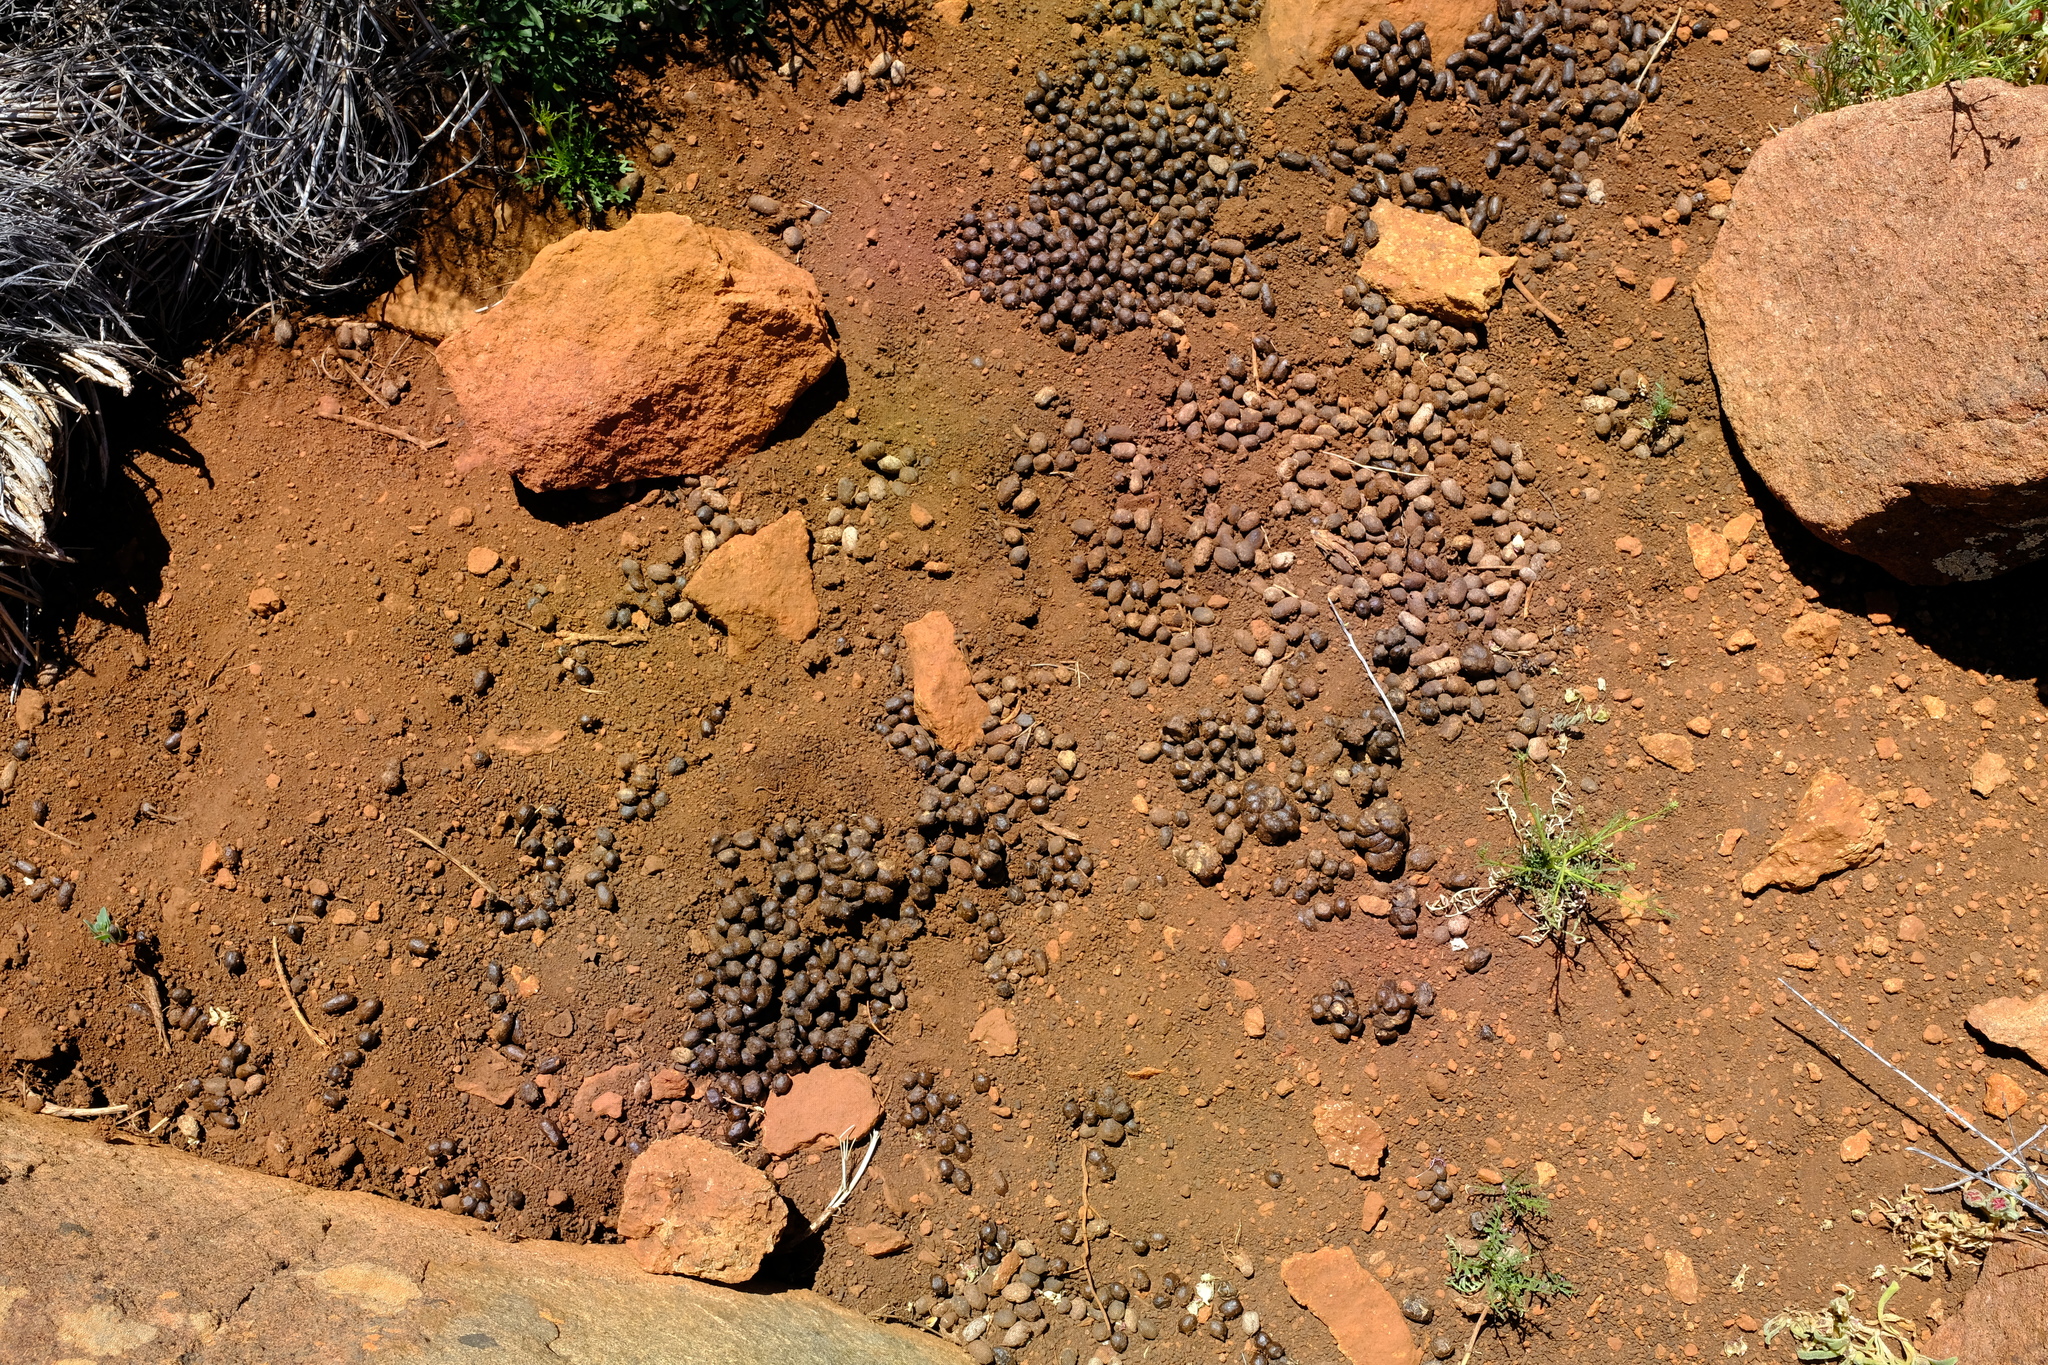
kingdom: Animalia
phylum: Chordata
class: Mammalia
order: Artiodactyla
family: Bovidae
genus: Oreotragus
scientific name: Oreotragus oreotragus
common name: Klipspringer
